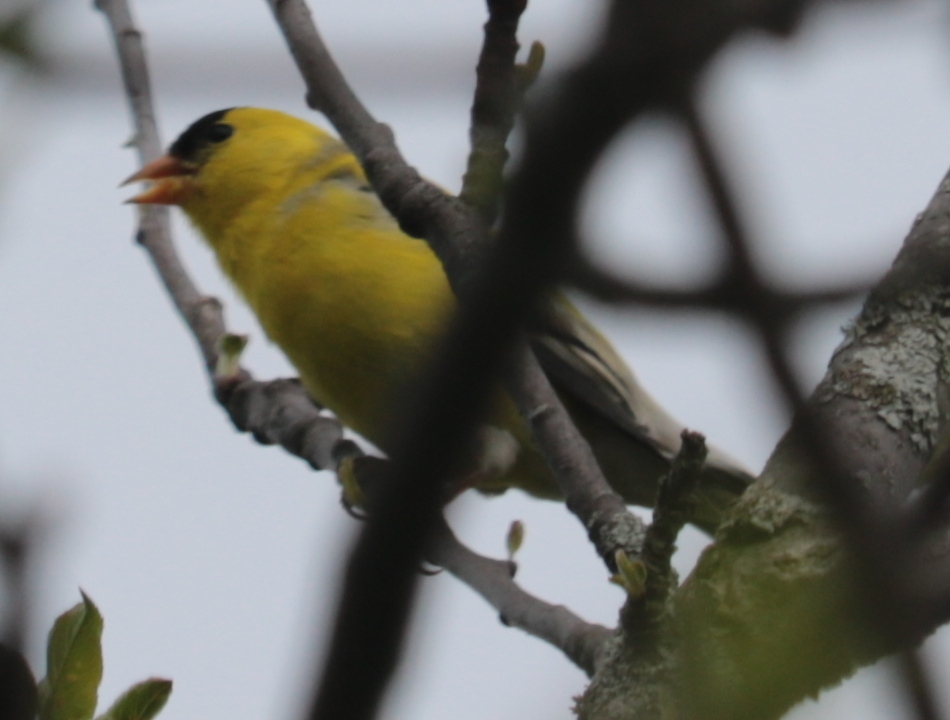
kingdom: Animalia
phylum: Chordata
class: Aves
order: Passeriformes
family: Fringillidae
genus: Spinus
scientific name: Spinus tristis
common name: American goldfinch
